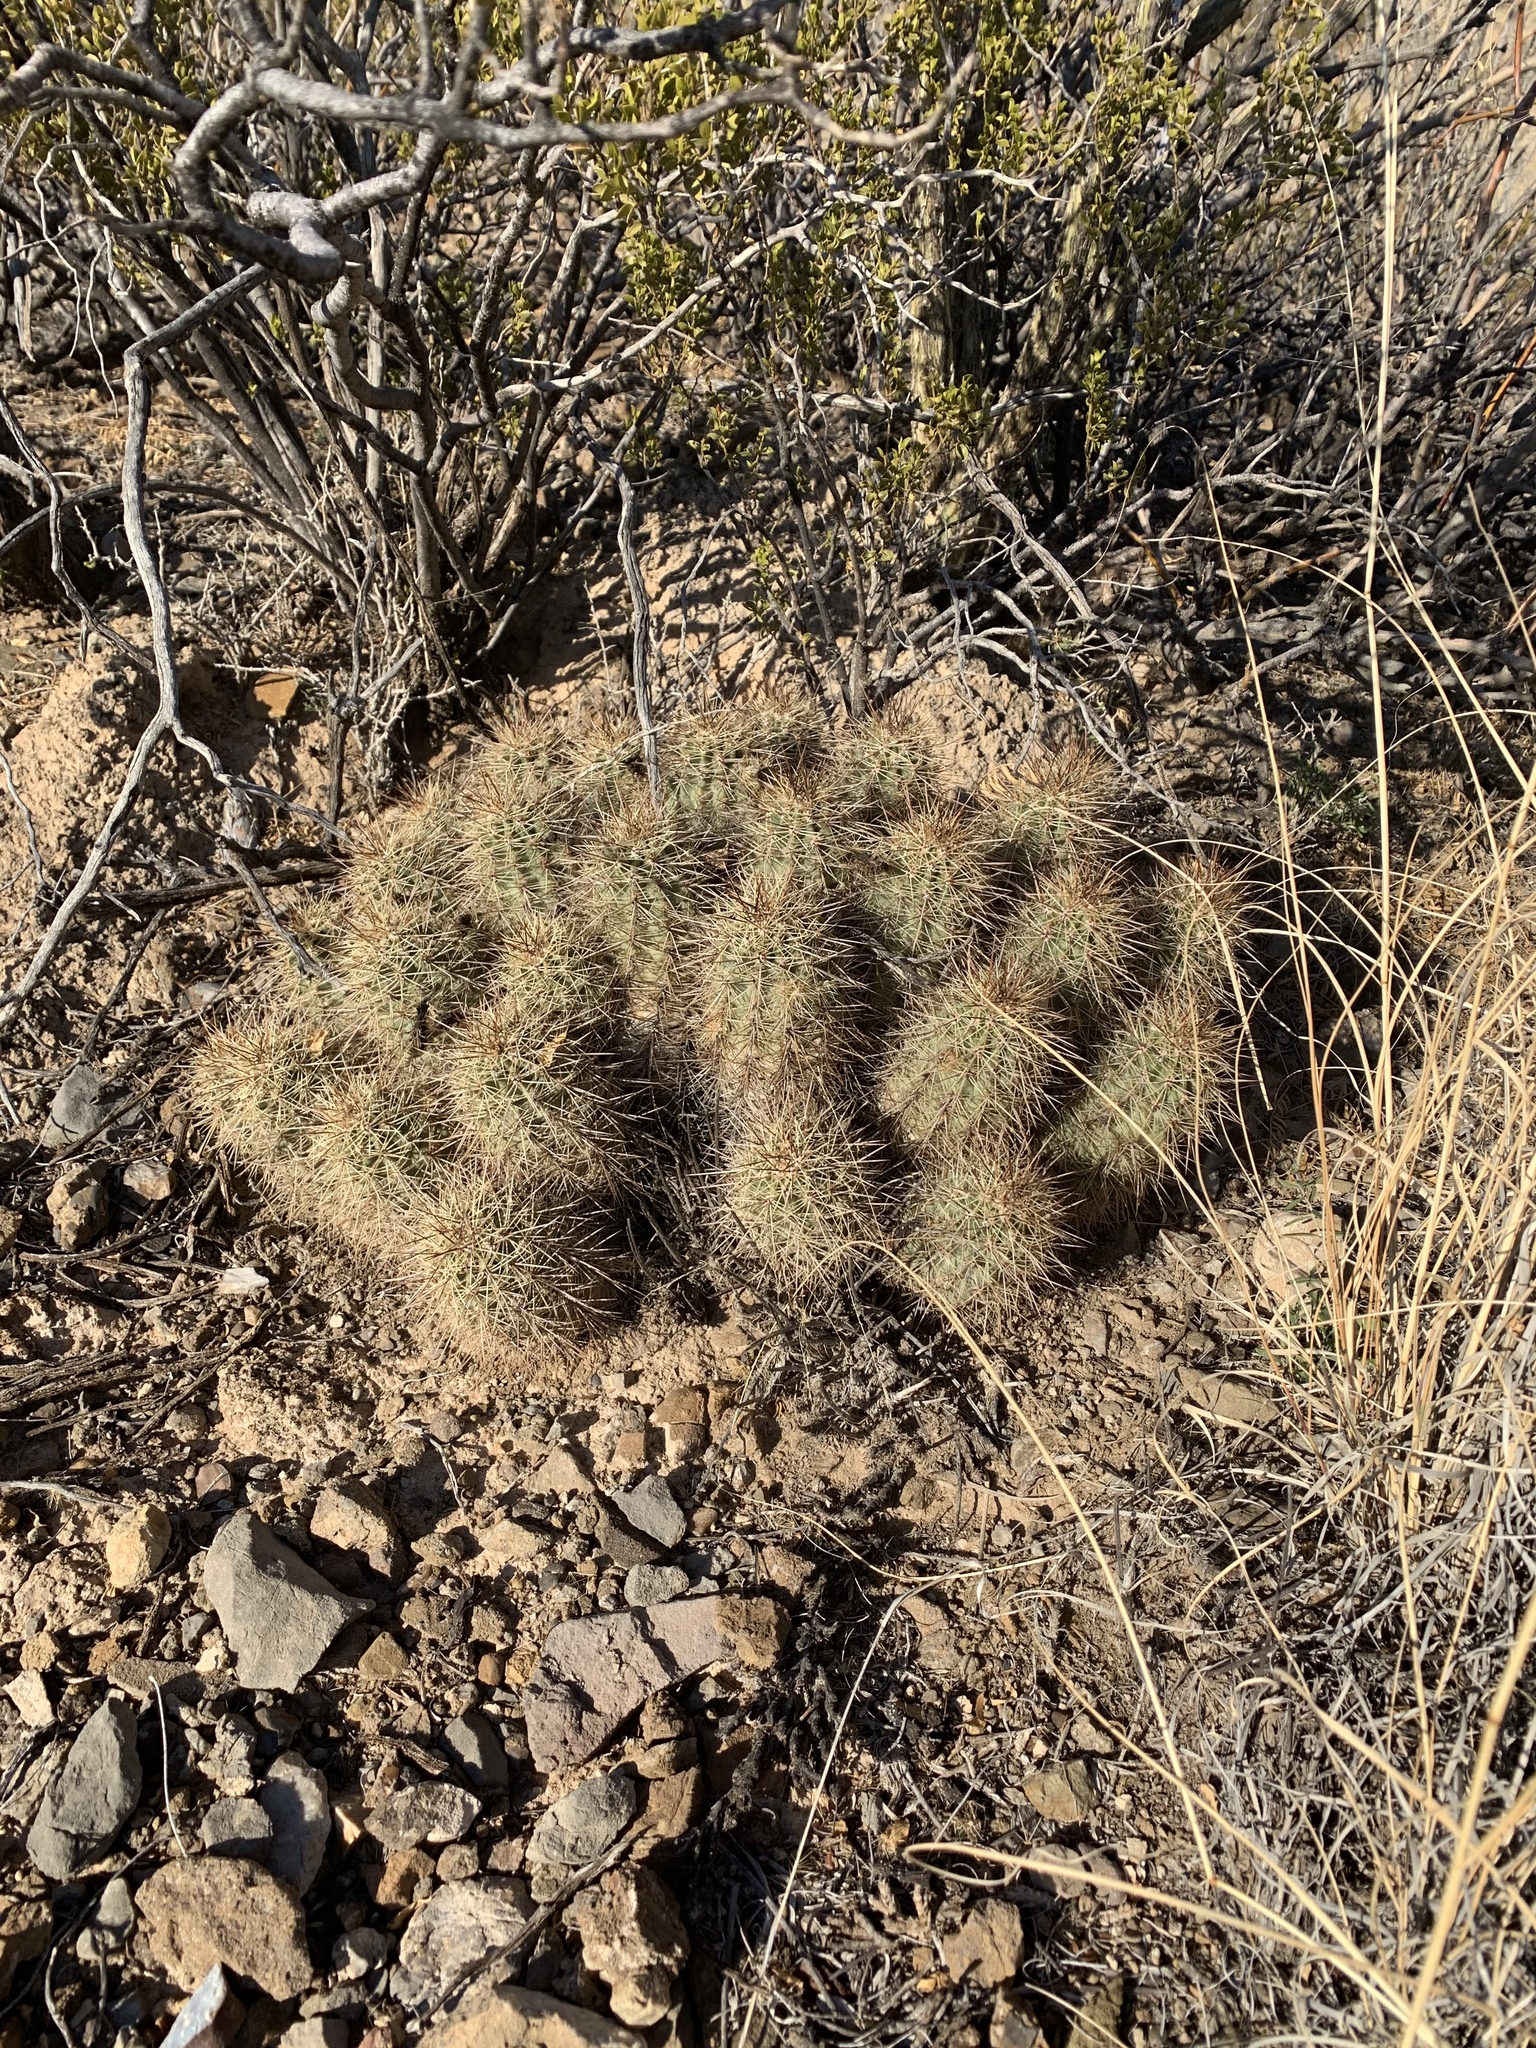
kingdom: Plantae
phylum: Tracheophyta
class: Magnoliopsida
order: Caryophyllales
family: Cactaceae
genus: Echinocereus
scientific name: Echinocereus coccineus
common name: Scarlet hedgehog cactus
